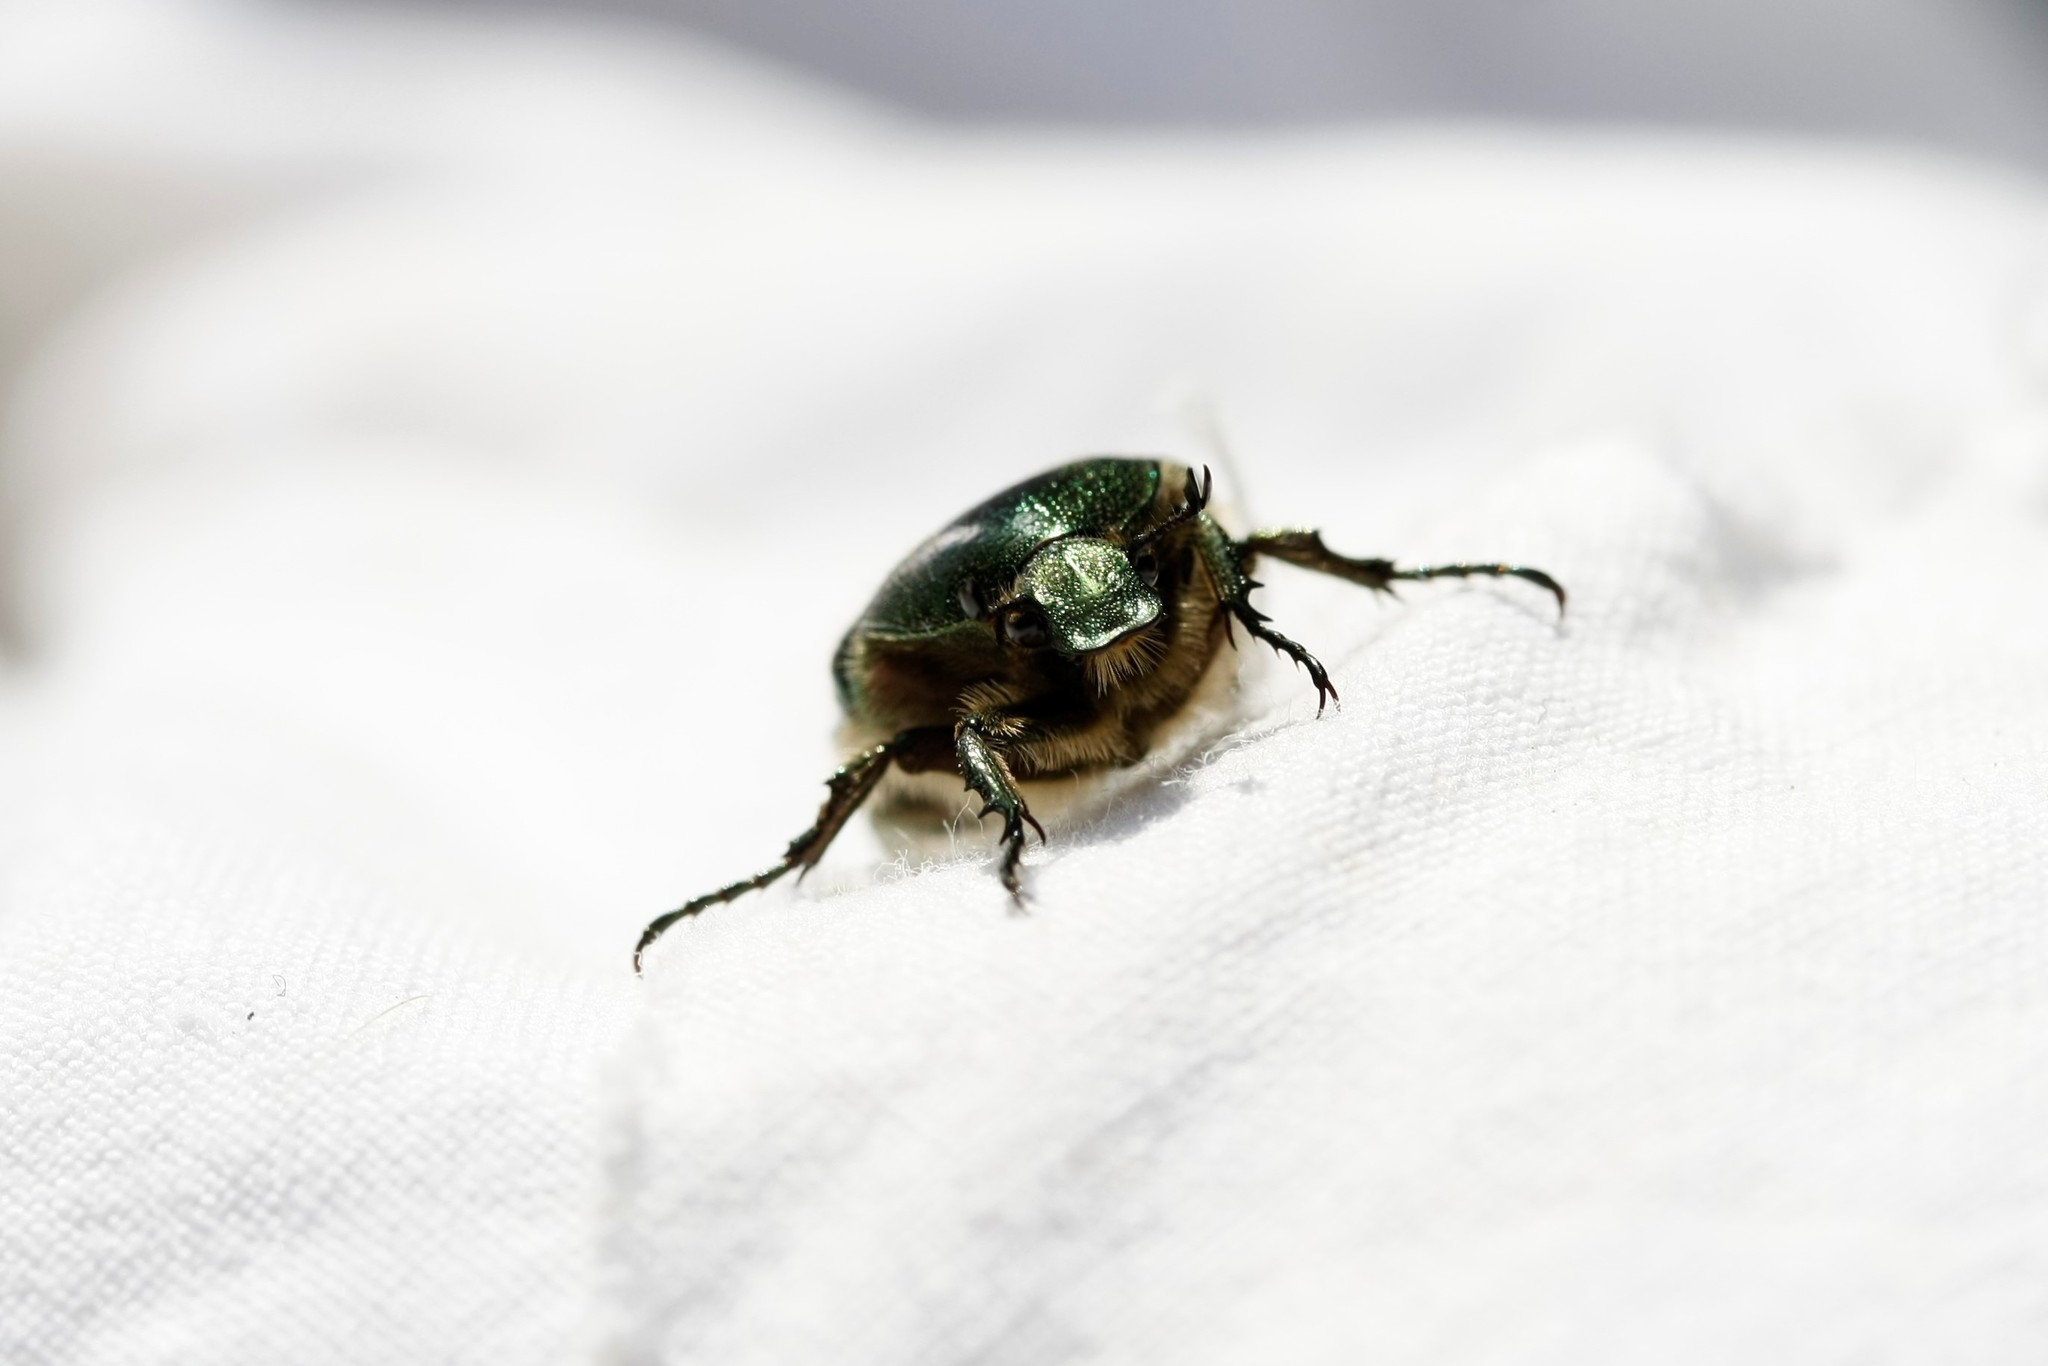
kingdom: Animalia
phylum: Arthropoda
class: Insecta
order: Coleoptera
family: Scarabaeidae
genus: Cetonia
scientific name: Cetonia aurata
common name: Rose chafer
